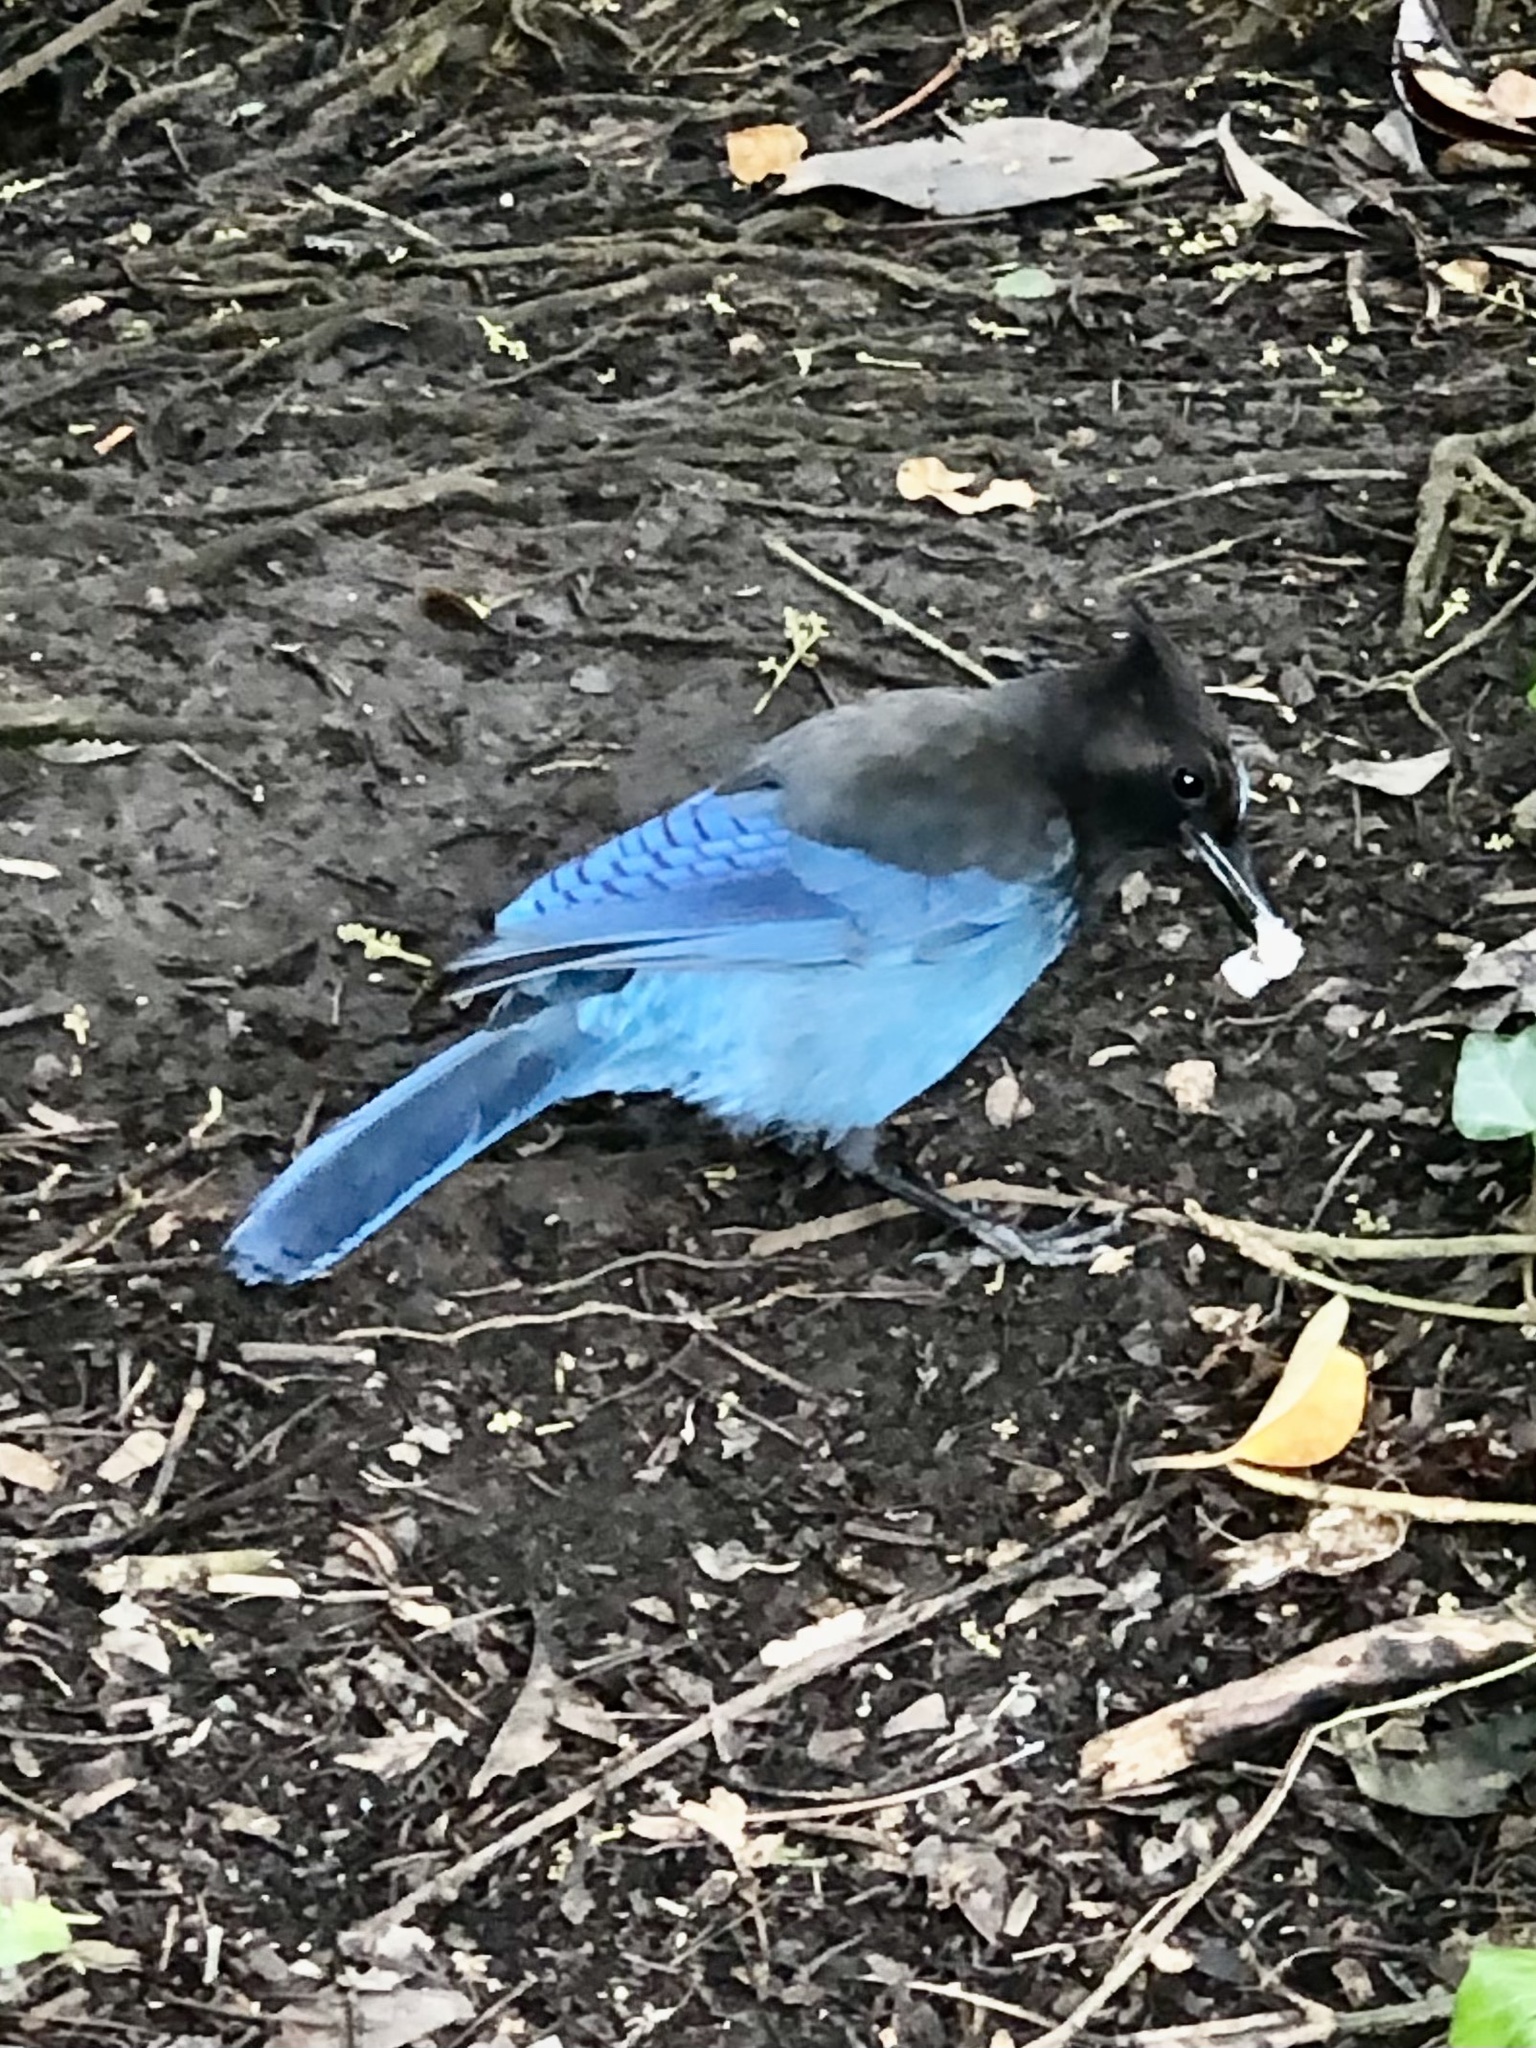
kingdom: Animalia
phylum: Chordata
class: Aves
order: Passeriformes
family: Corvidae
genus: Cyanocitta
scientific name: Cyanocitta stelleri
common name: Steller's jay
